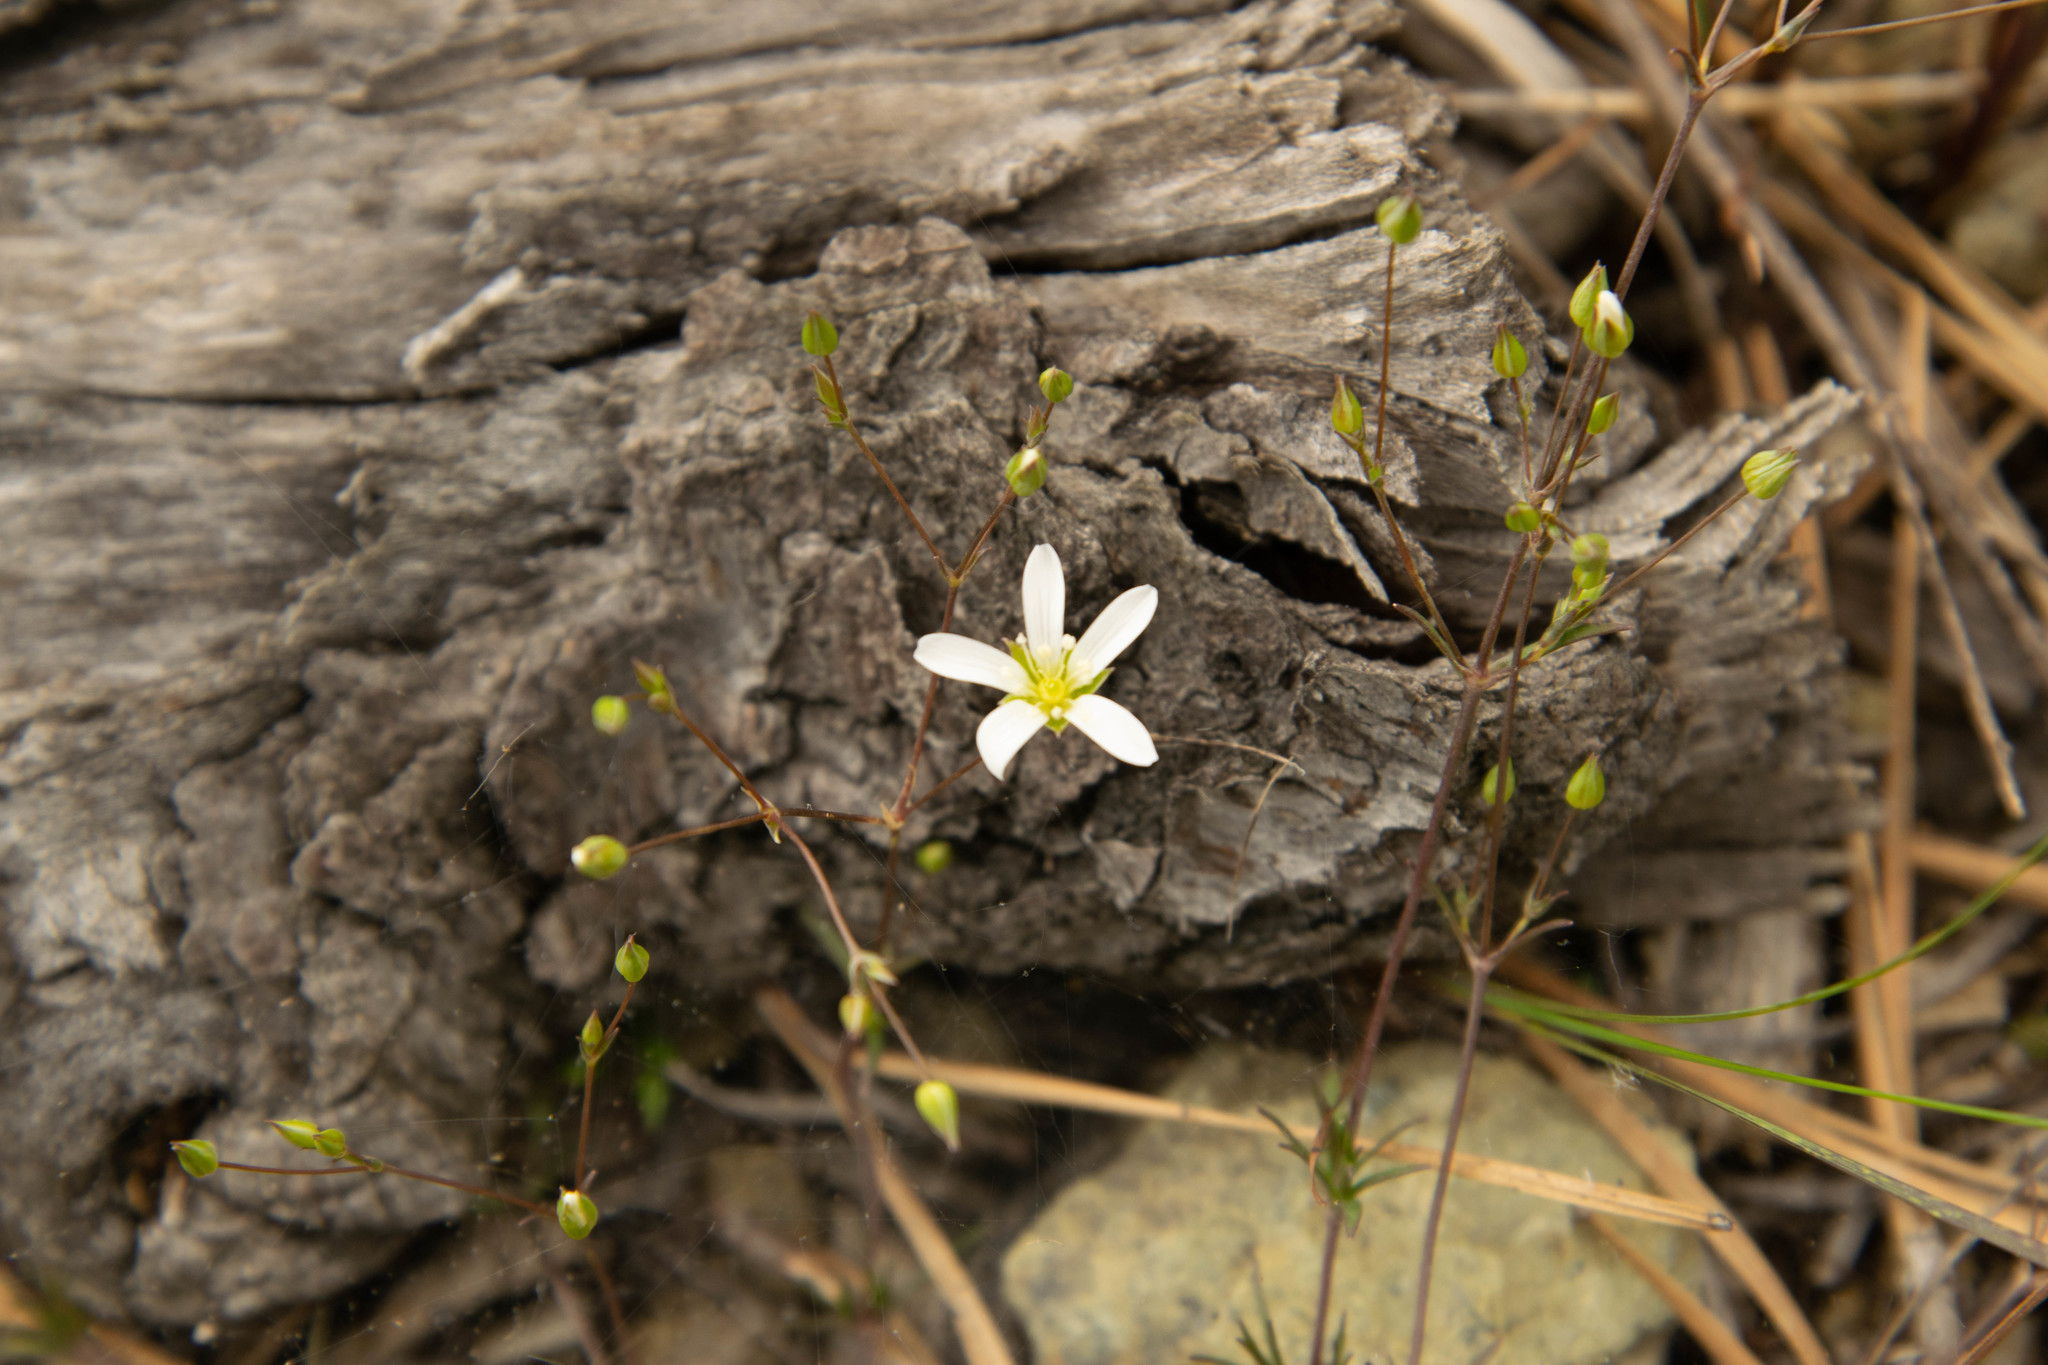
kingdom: Plantae
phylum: Tracheophyta
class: Magnoliopsida
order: Caryophyllales
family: Caryophyllaceae
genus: Sabulina
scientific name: Sabulina michauxii
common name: Michaux's stitchwort
